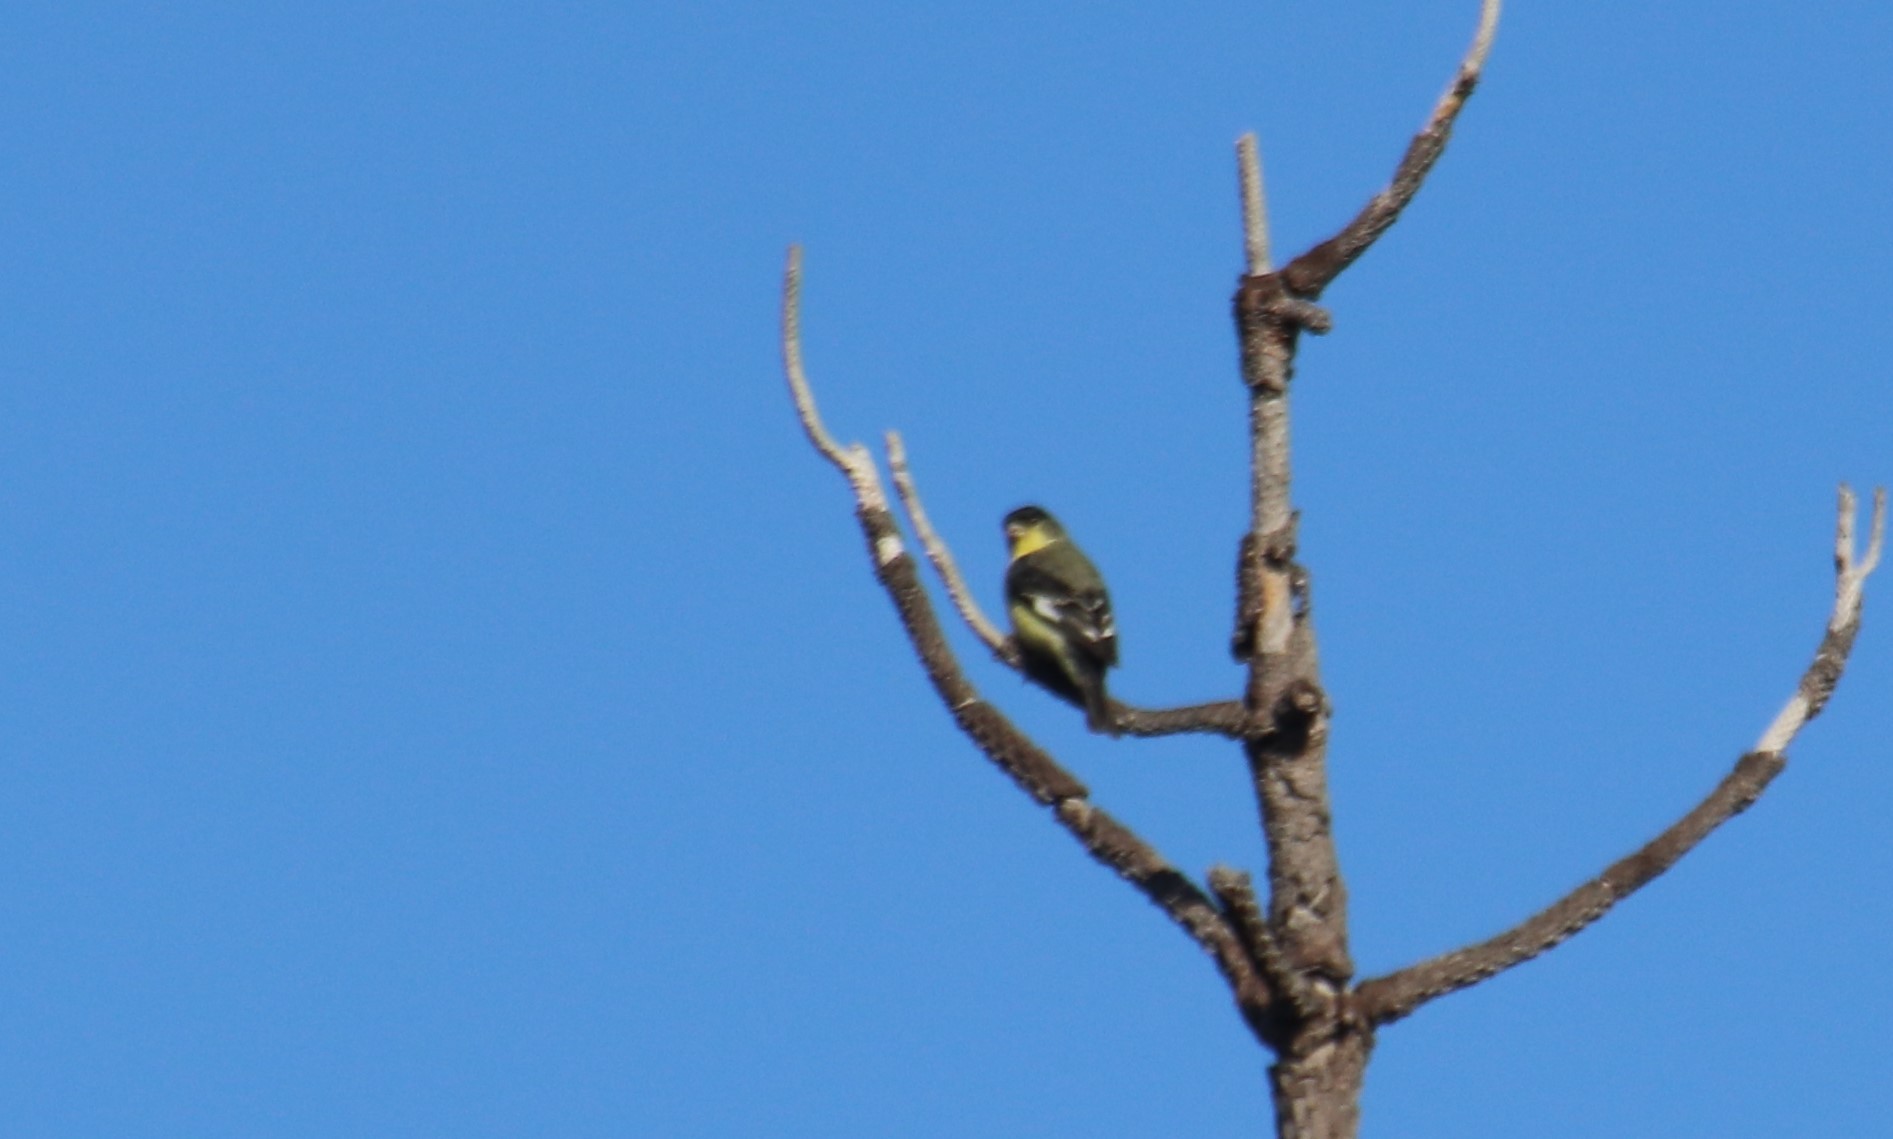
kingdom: Animalia
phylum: Chordata
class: Aves
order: Passeriformes
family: Fringillidae
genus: Spinus
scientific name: Spinus psaltria
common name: Lesser goldfinch
